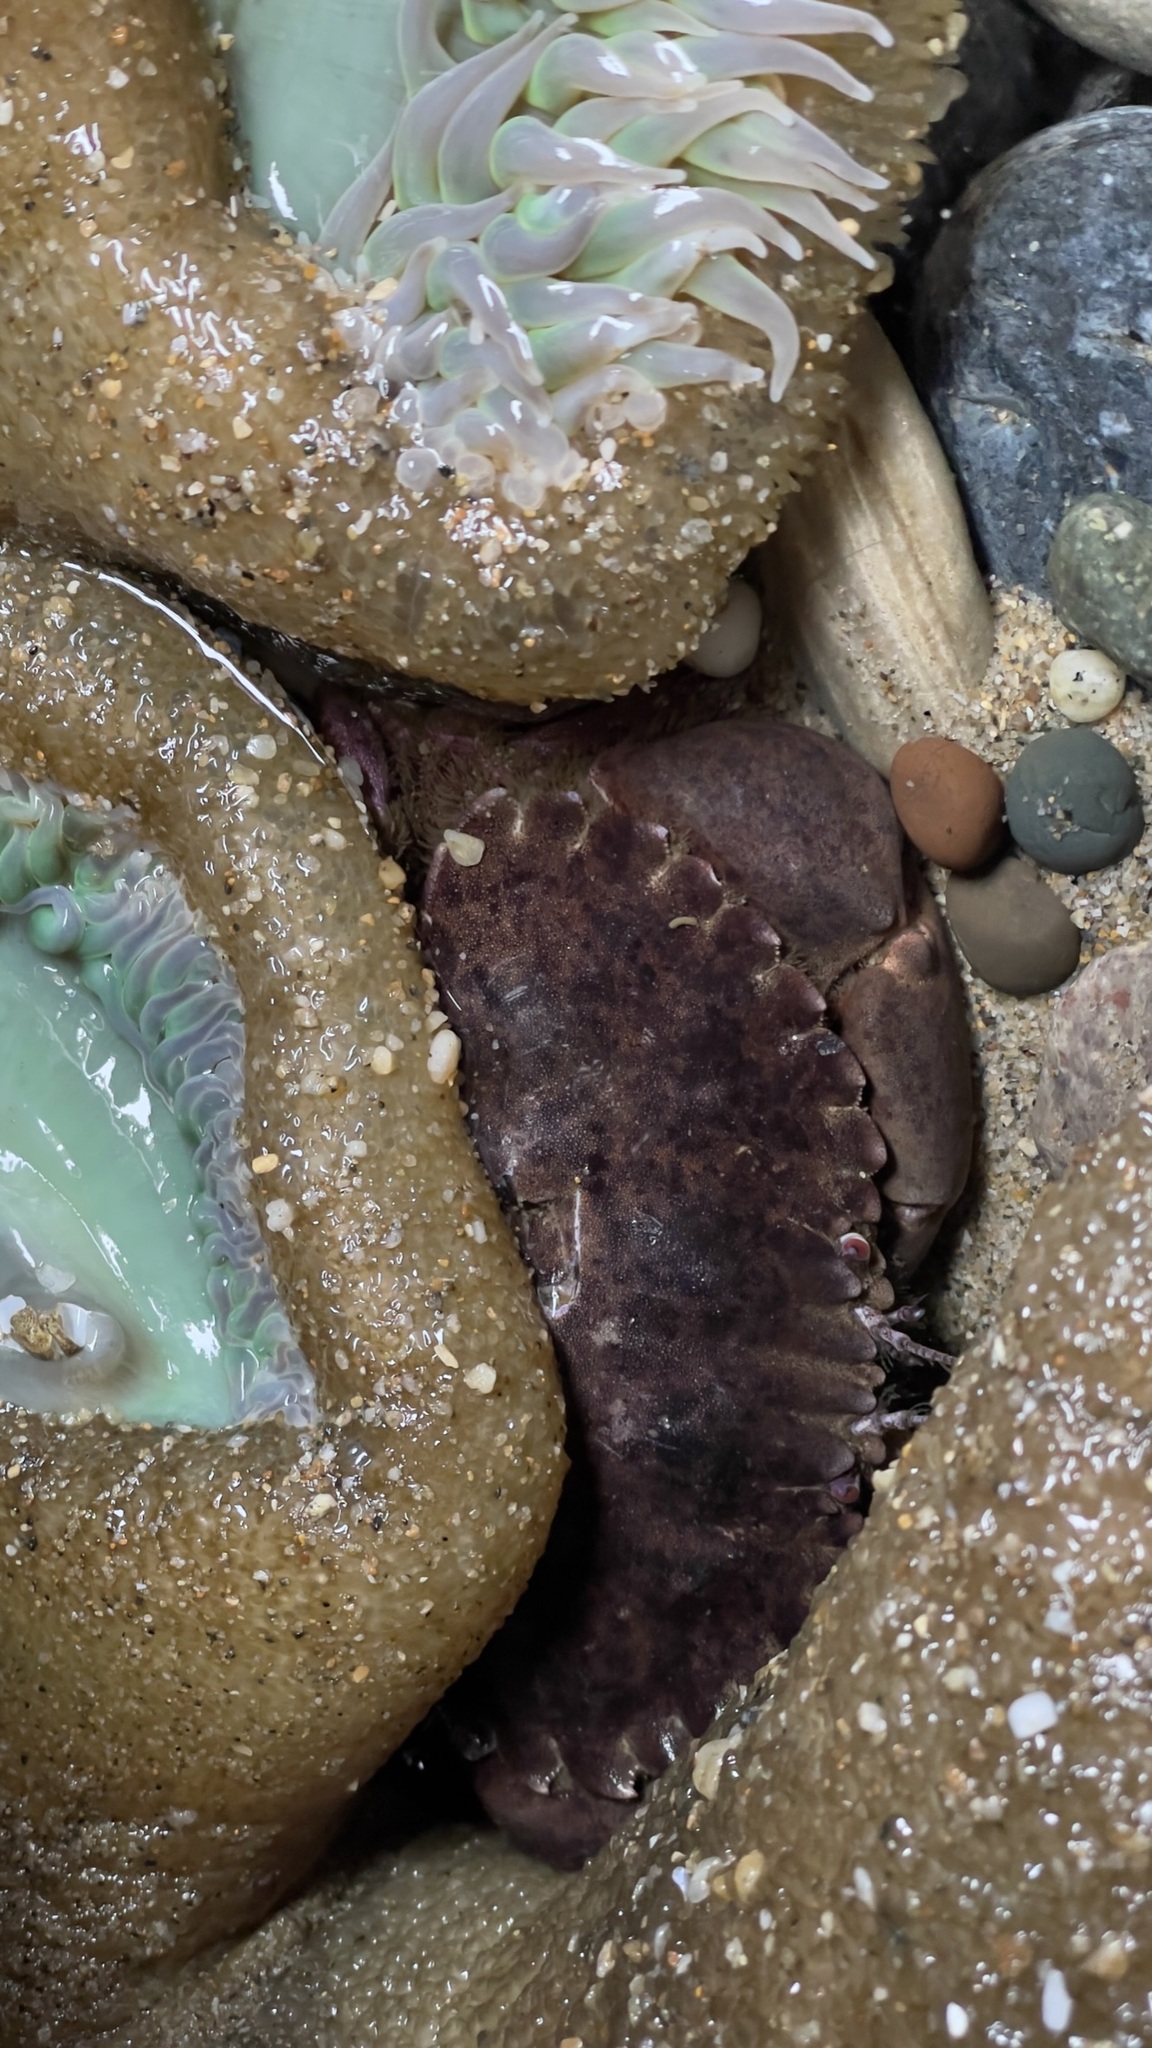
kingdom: Animalia
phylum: Arthropoda
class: Malacostraca
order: Decapoda
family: Cancridae
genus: Romaleon
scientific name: Romaleon antennarium
